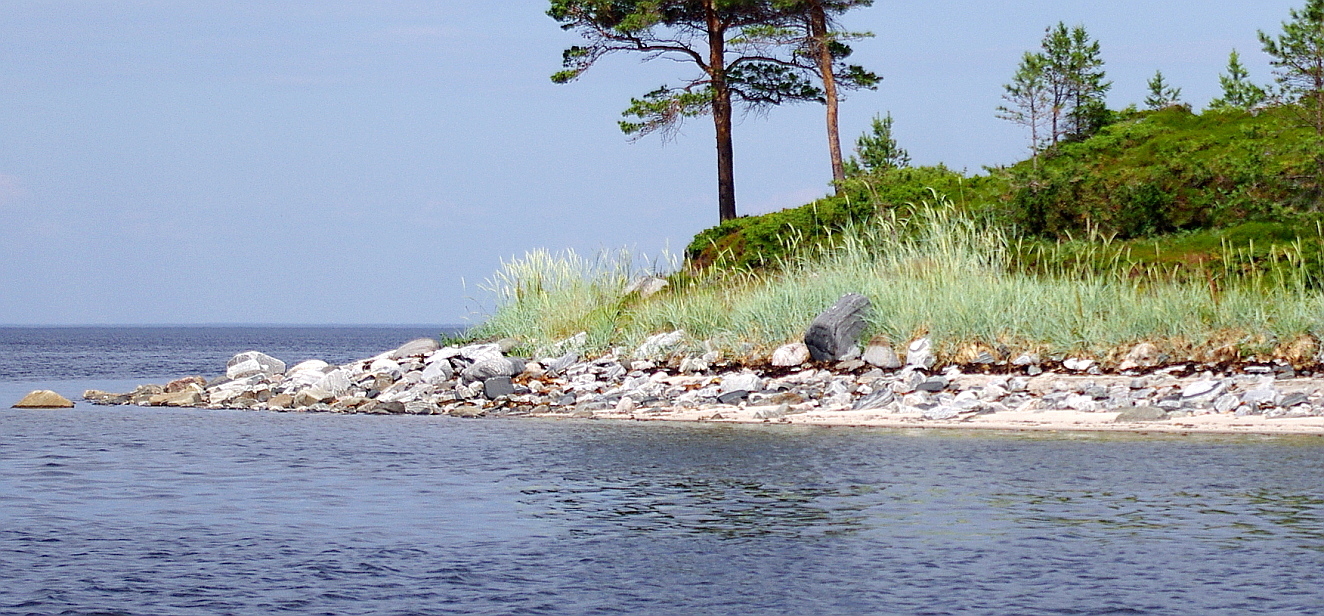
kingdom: Plantae
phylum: Tracheophyta
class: Liliopsida
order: Poales
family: Poaceae
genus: Leymus
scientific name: Leymus arenarius
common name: Lyme-grass
